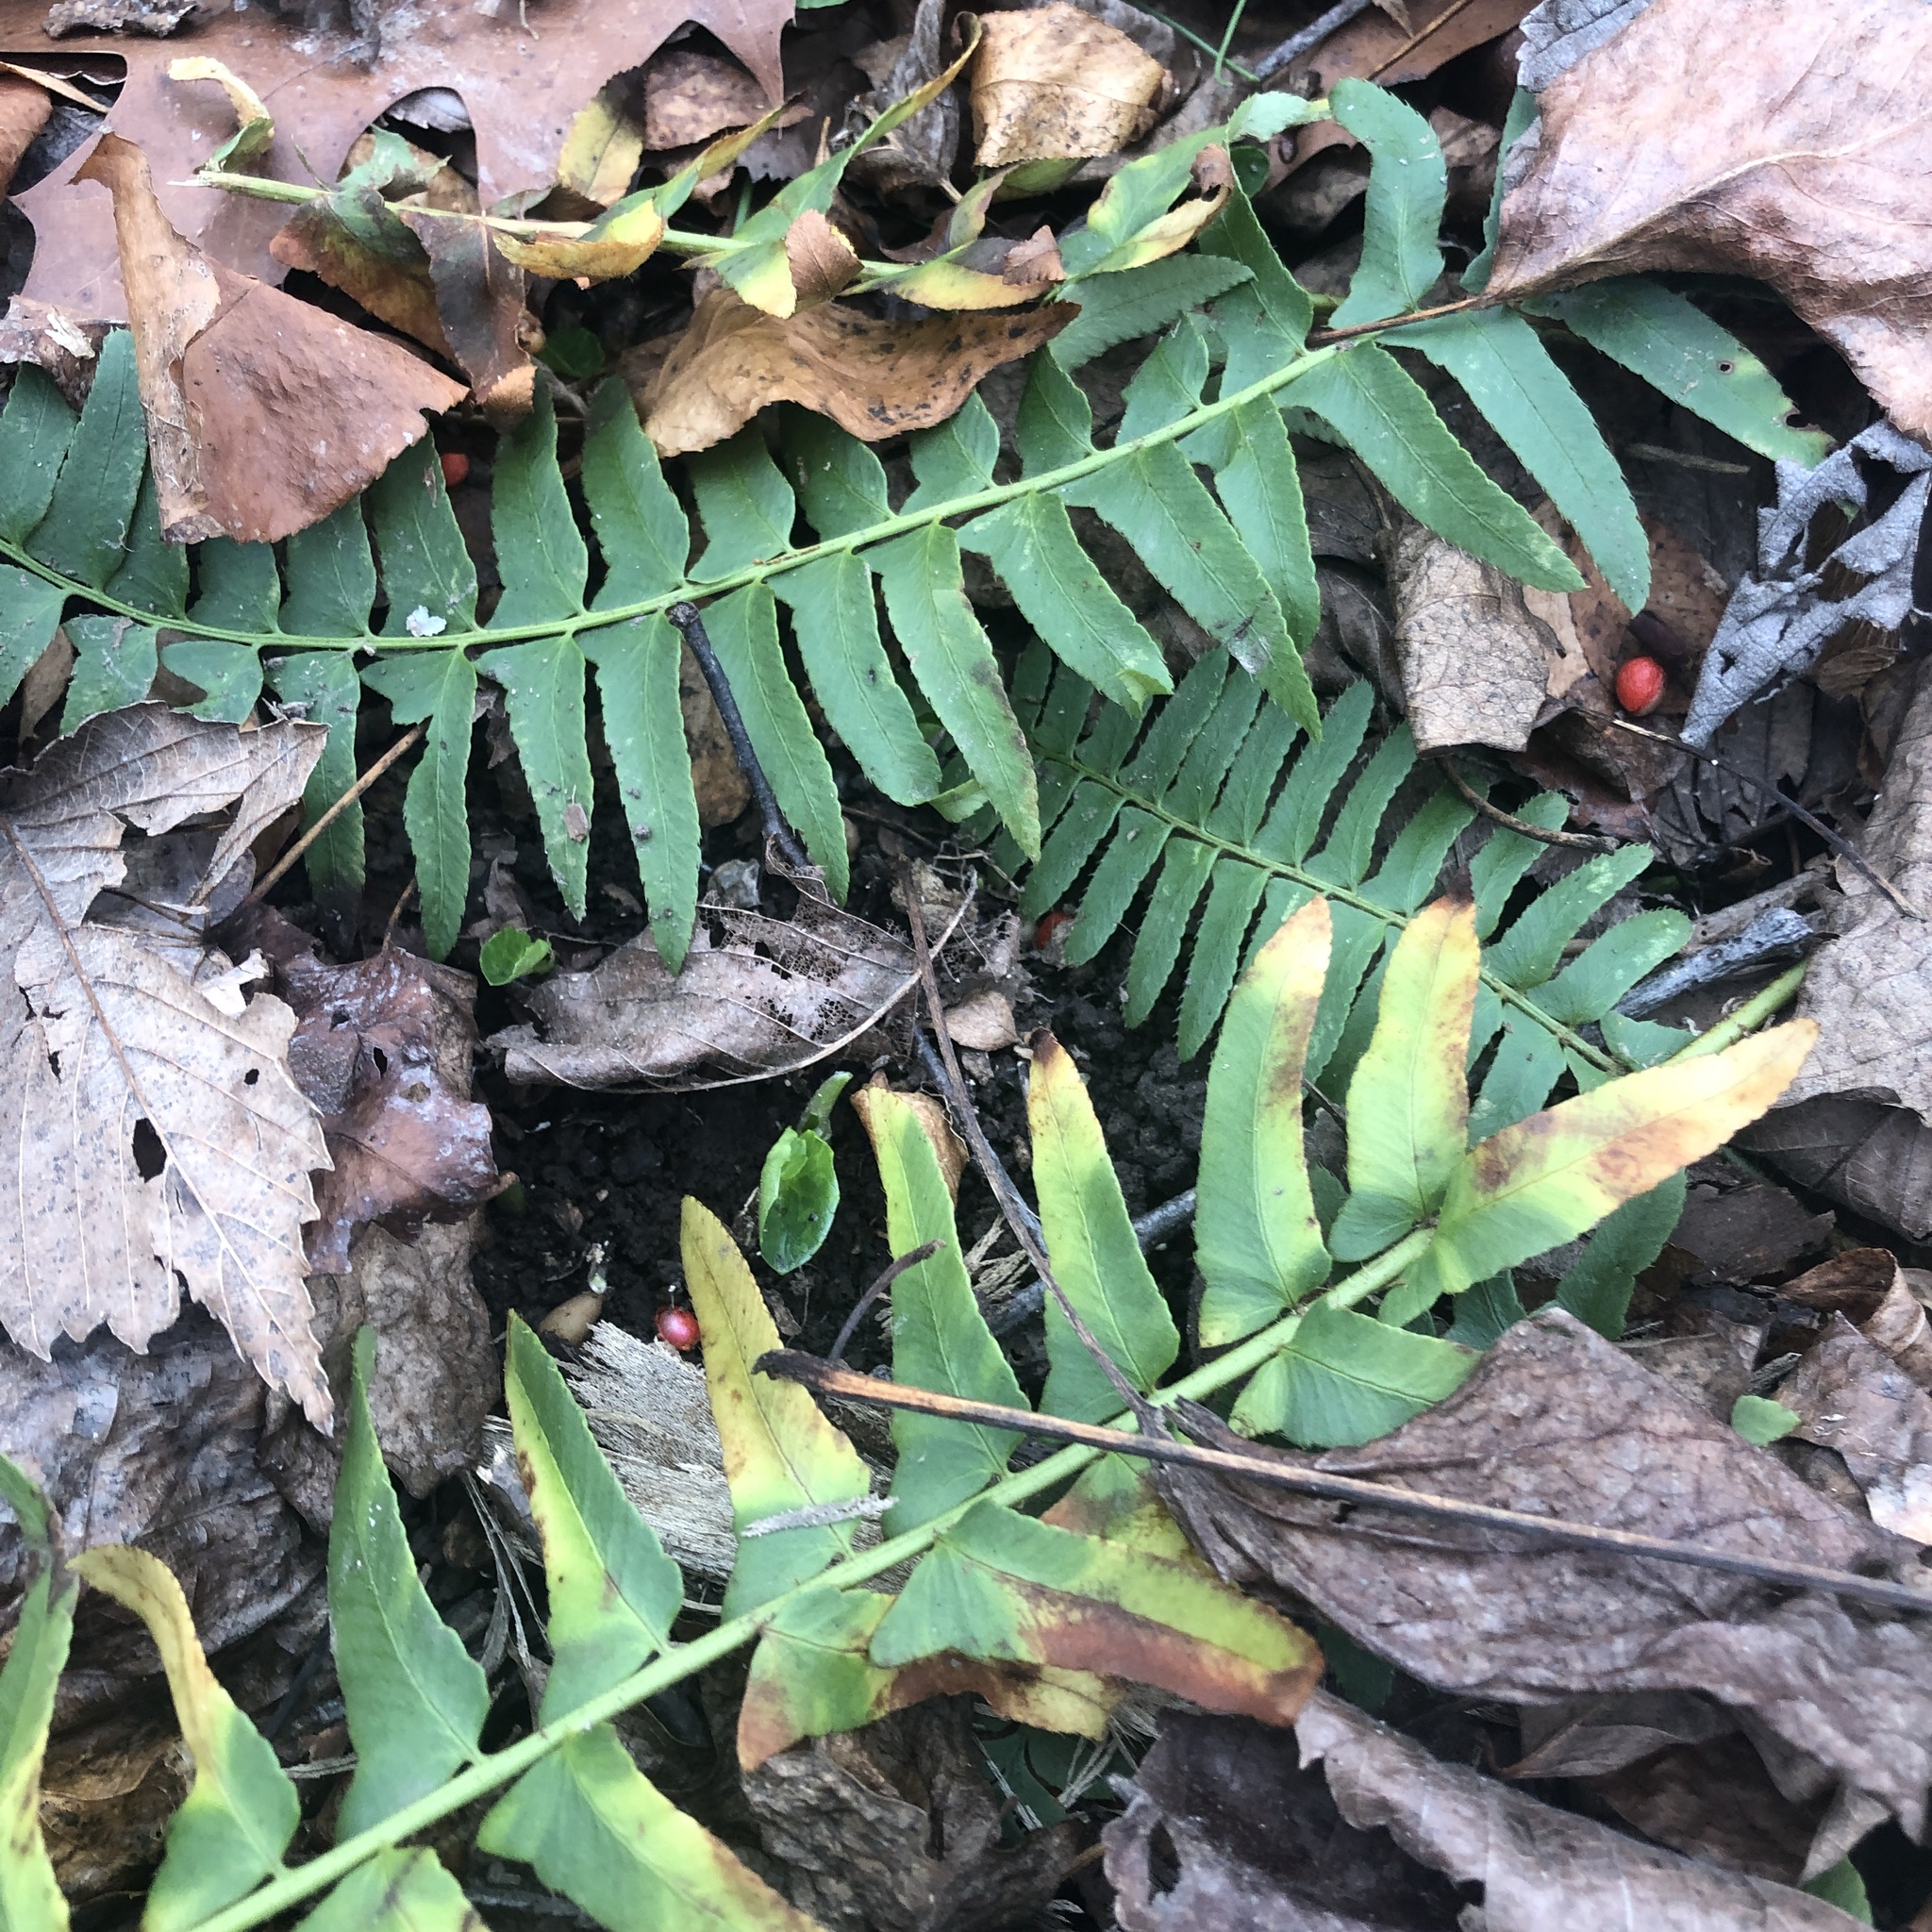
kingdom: Plantae
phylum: Tracheophyta
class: Polypodiopsida
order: Polypodiales
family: Dryopteridaceae
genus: Polystichum
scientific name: Polystichum acrostichoides
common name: Christmas fern
